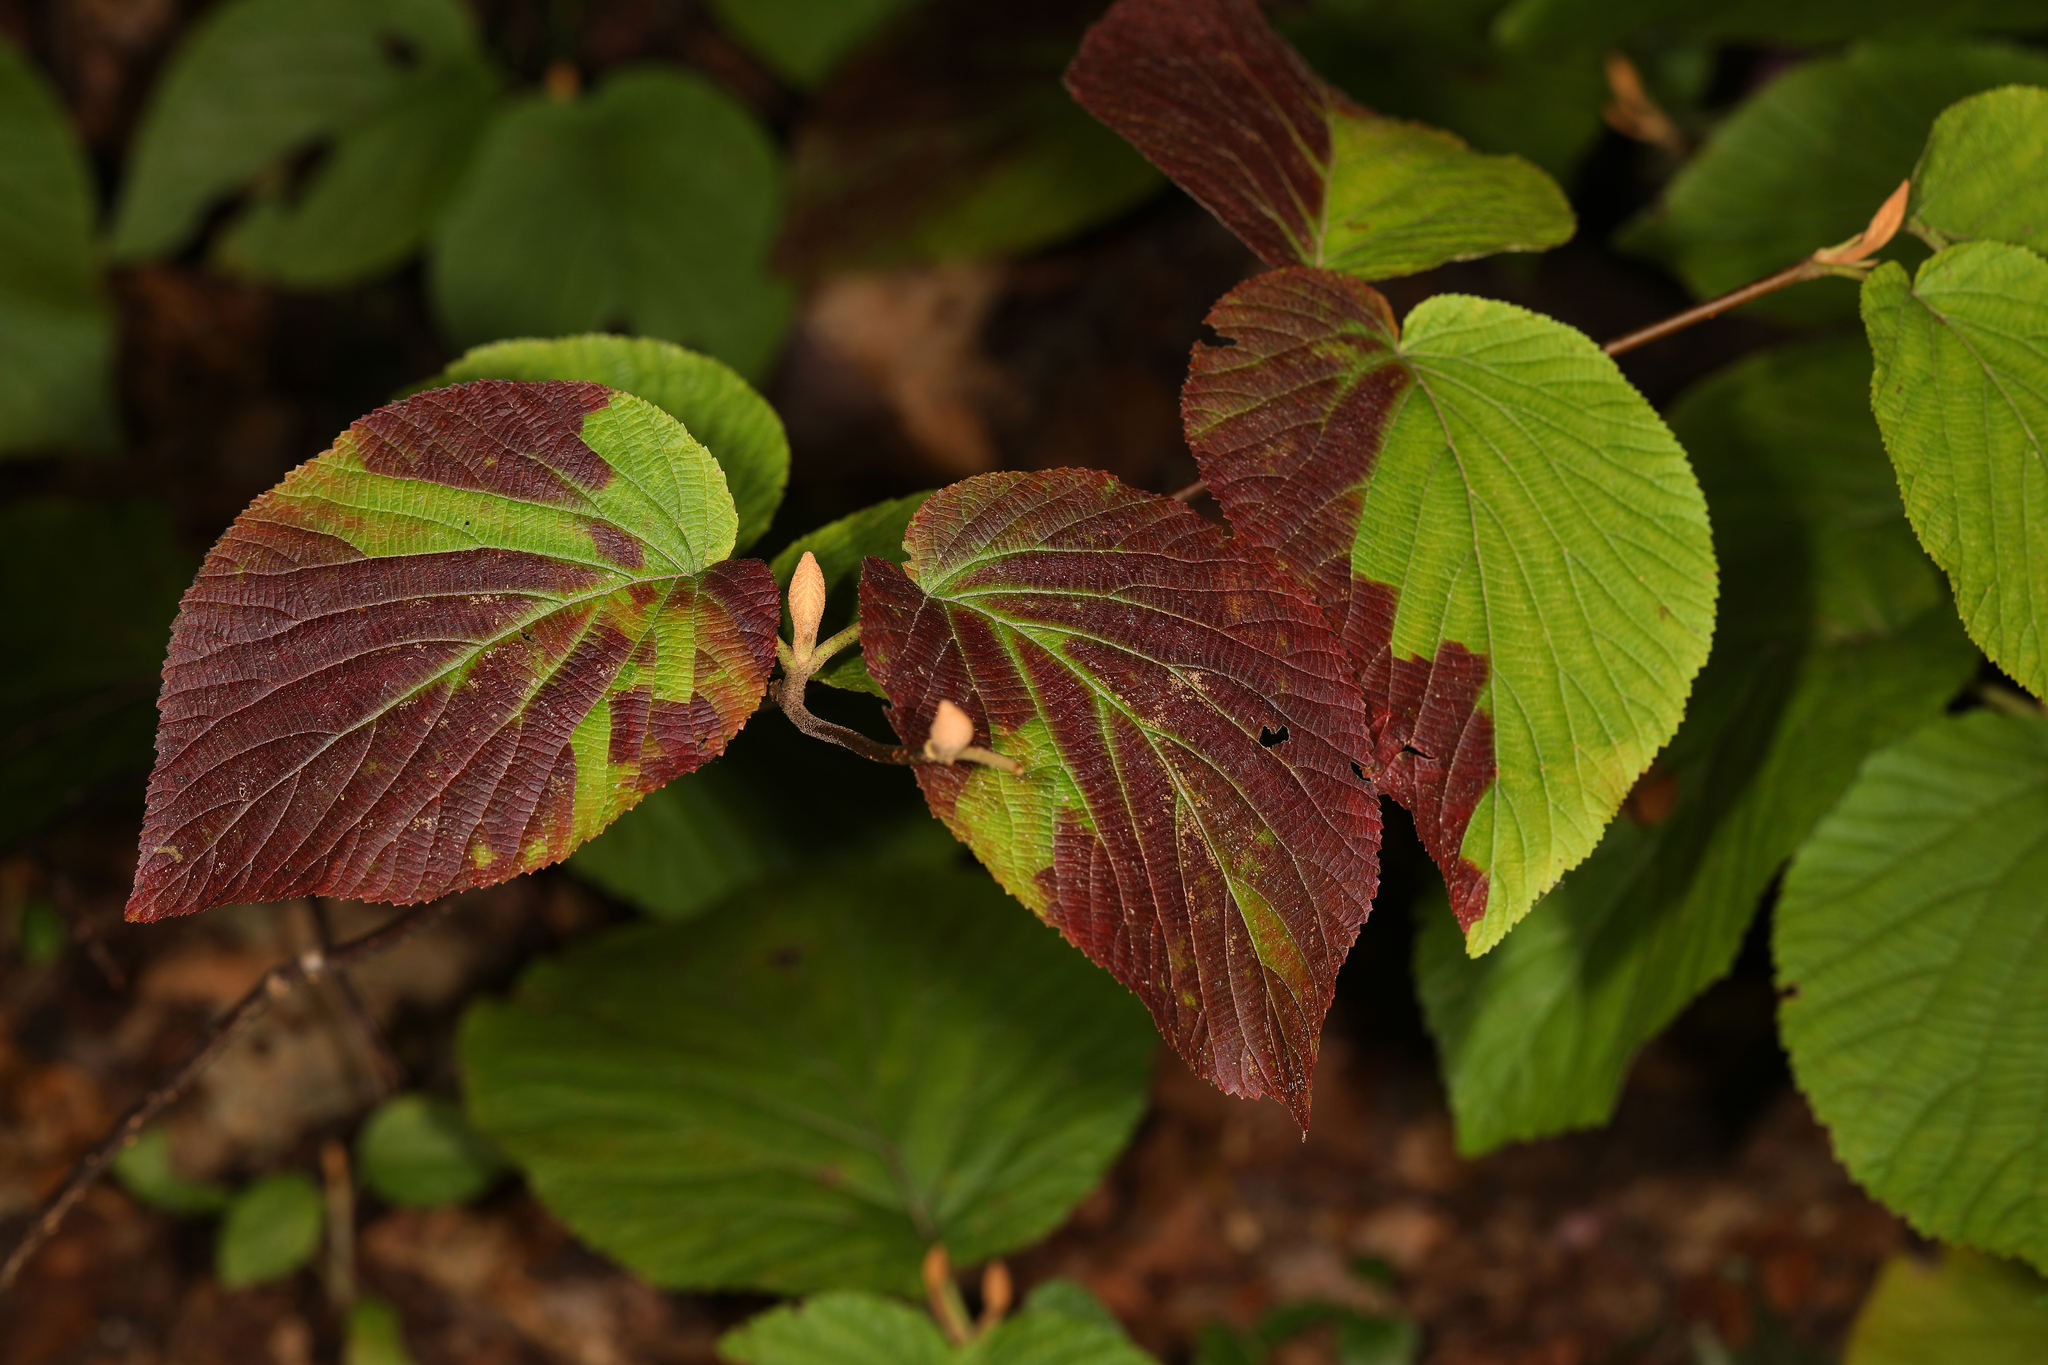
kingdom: Plantae
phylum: Tracheophyta
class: Magnoliopsida
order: Dipsacales
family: Viburnaceae
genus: Viburnum
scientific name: Viburnum lantanoides
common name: Hobblebush
